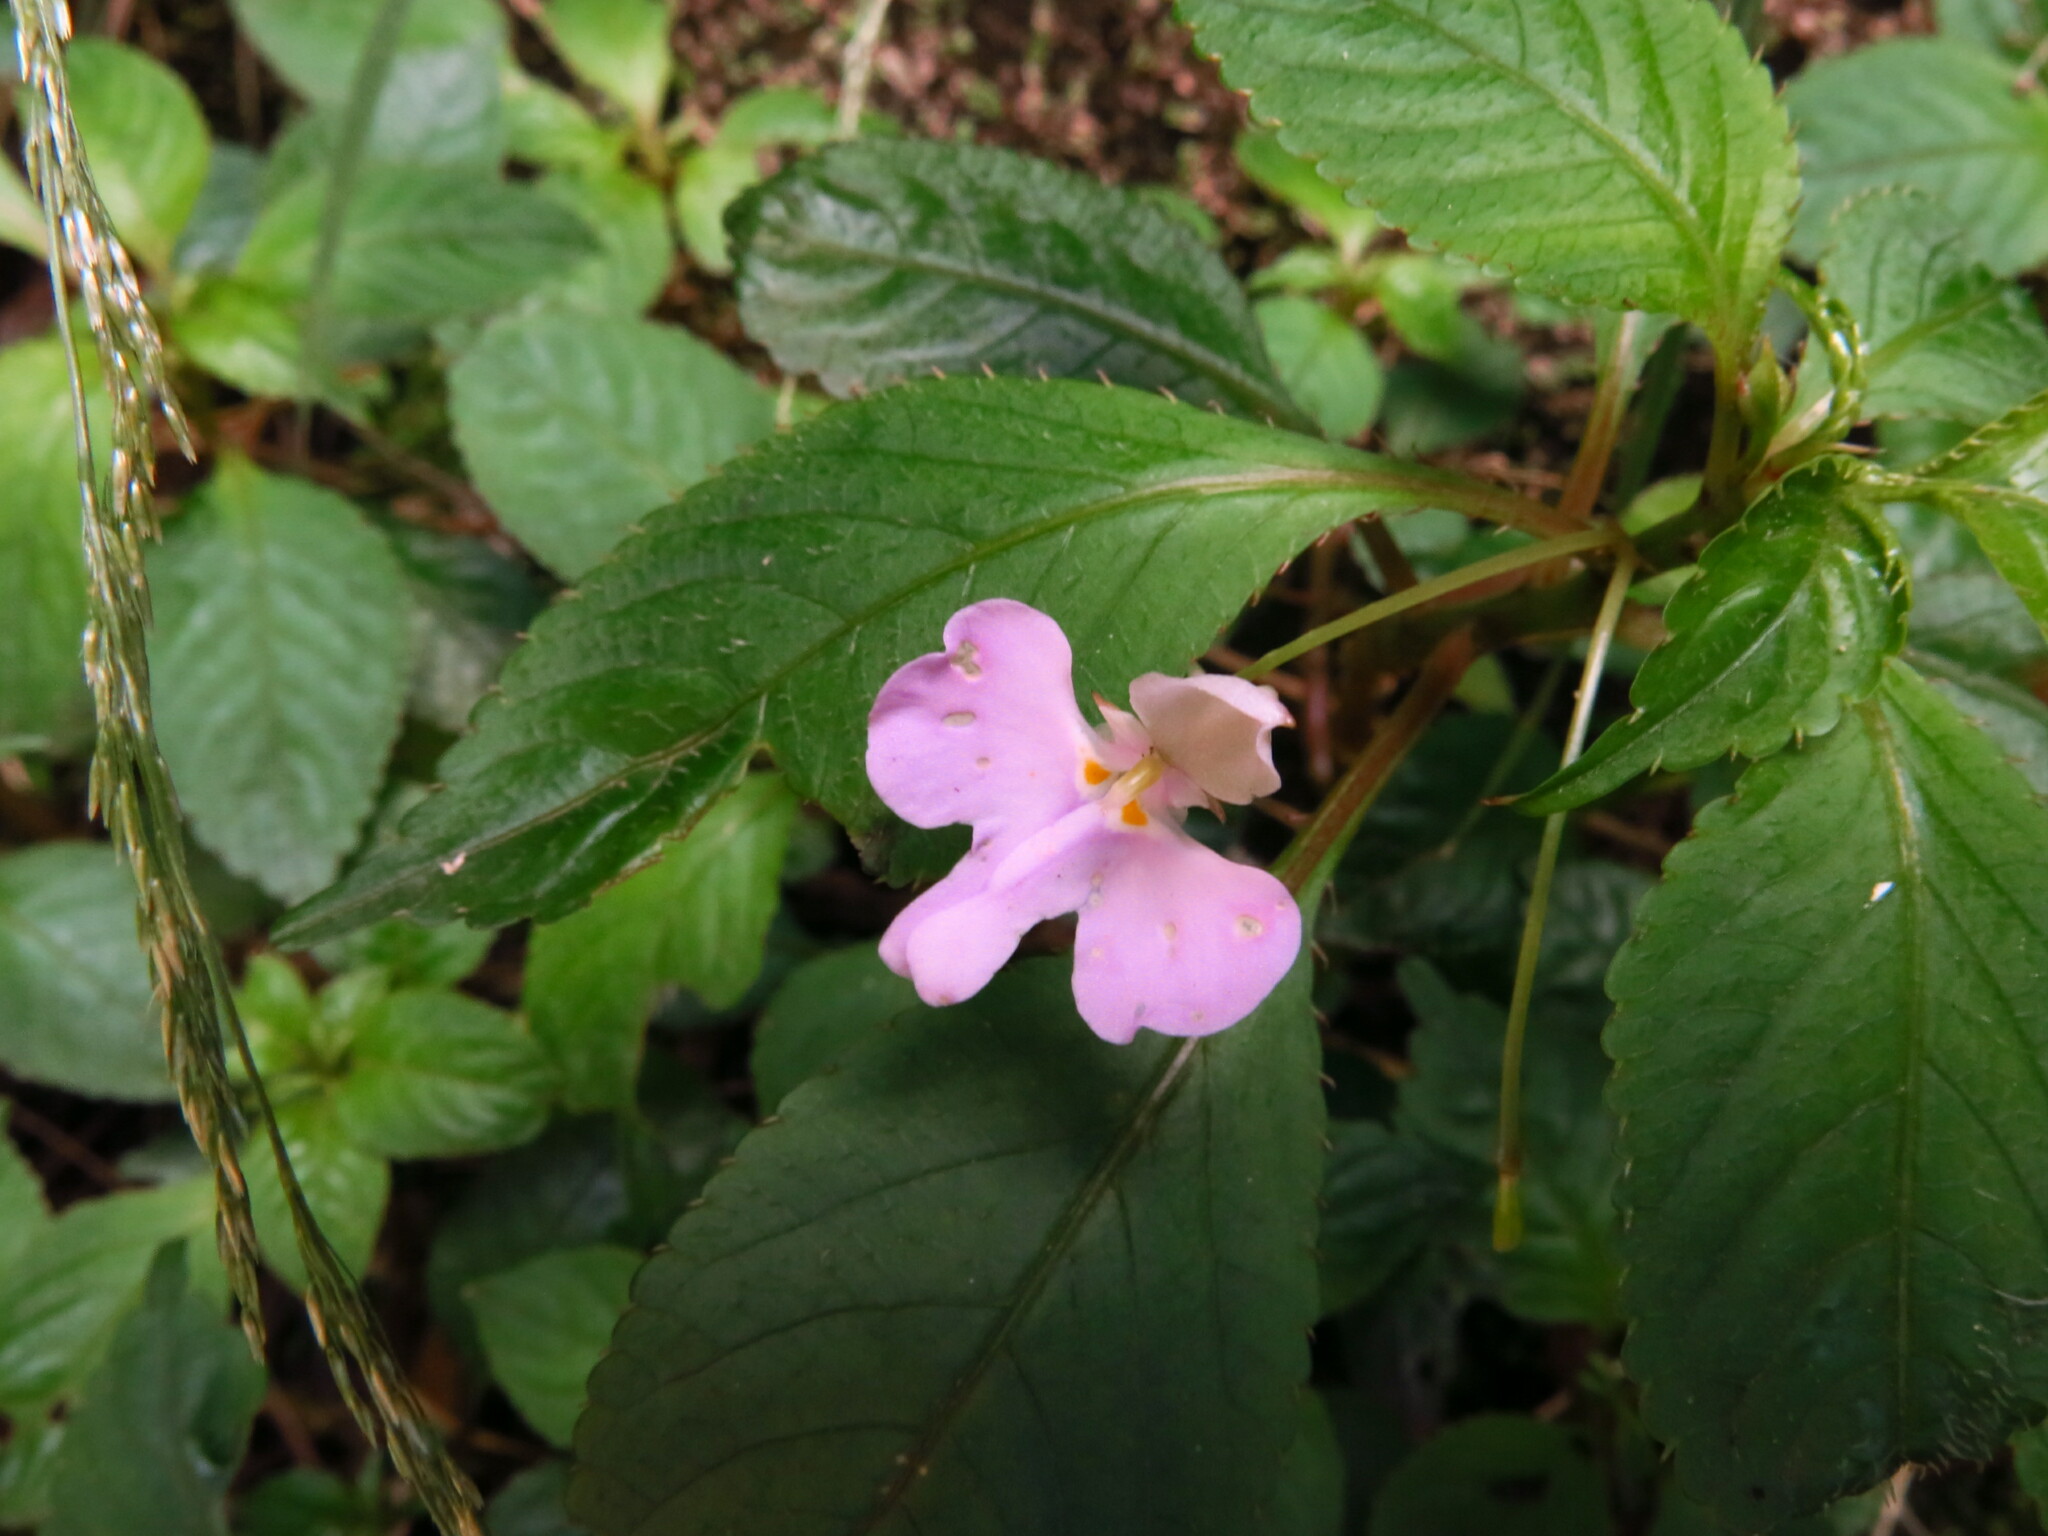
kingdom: Plantae
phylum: Tracheophyta
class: Magnoliopsida
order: Ericales
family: Balsaminaceae
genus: Impatiens
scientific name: Impatiens hochstetteri
